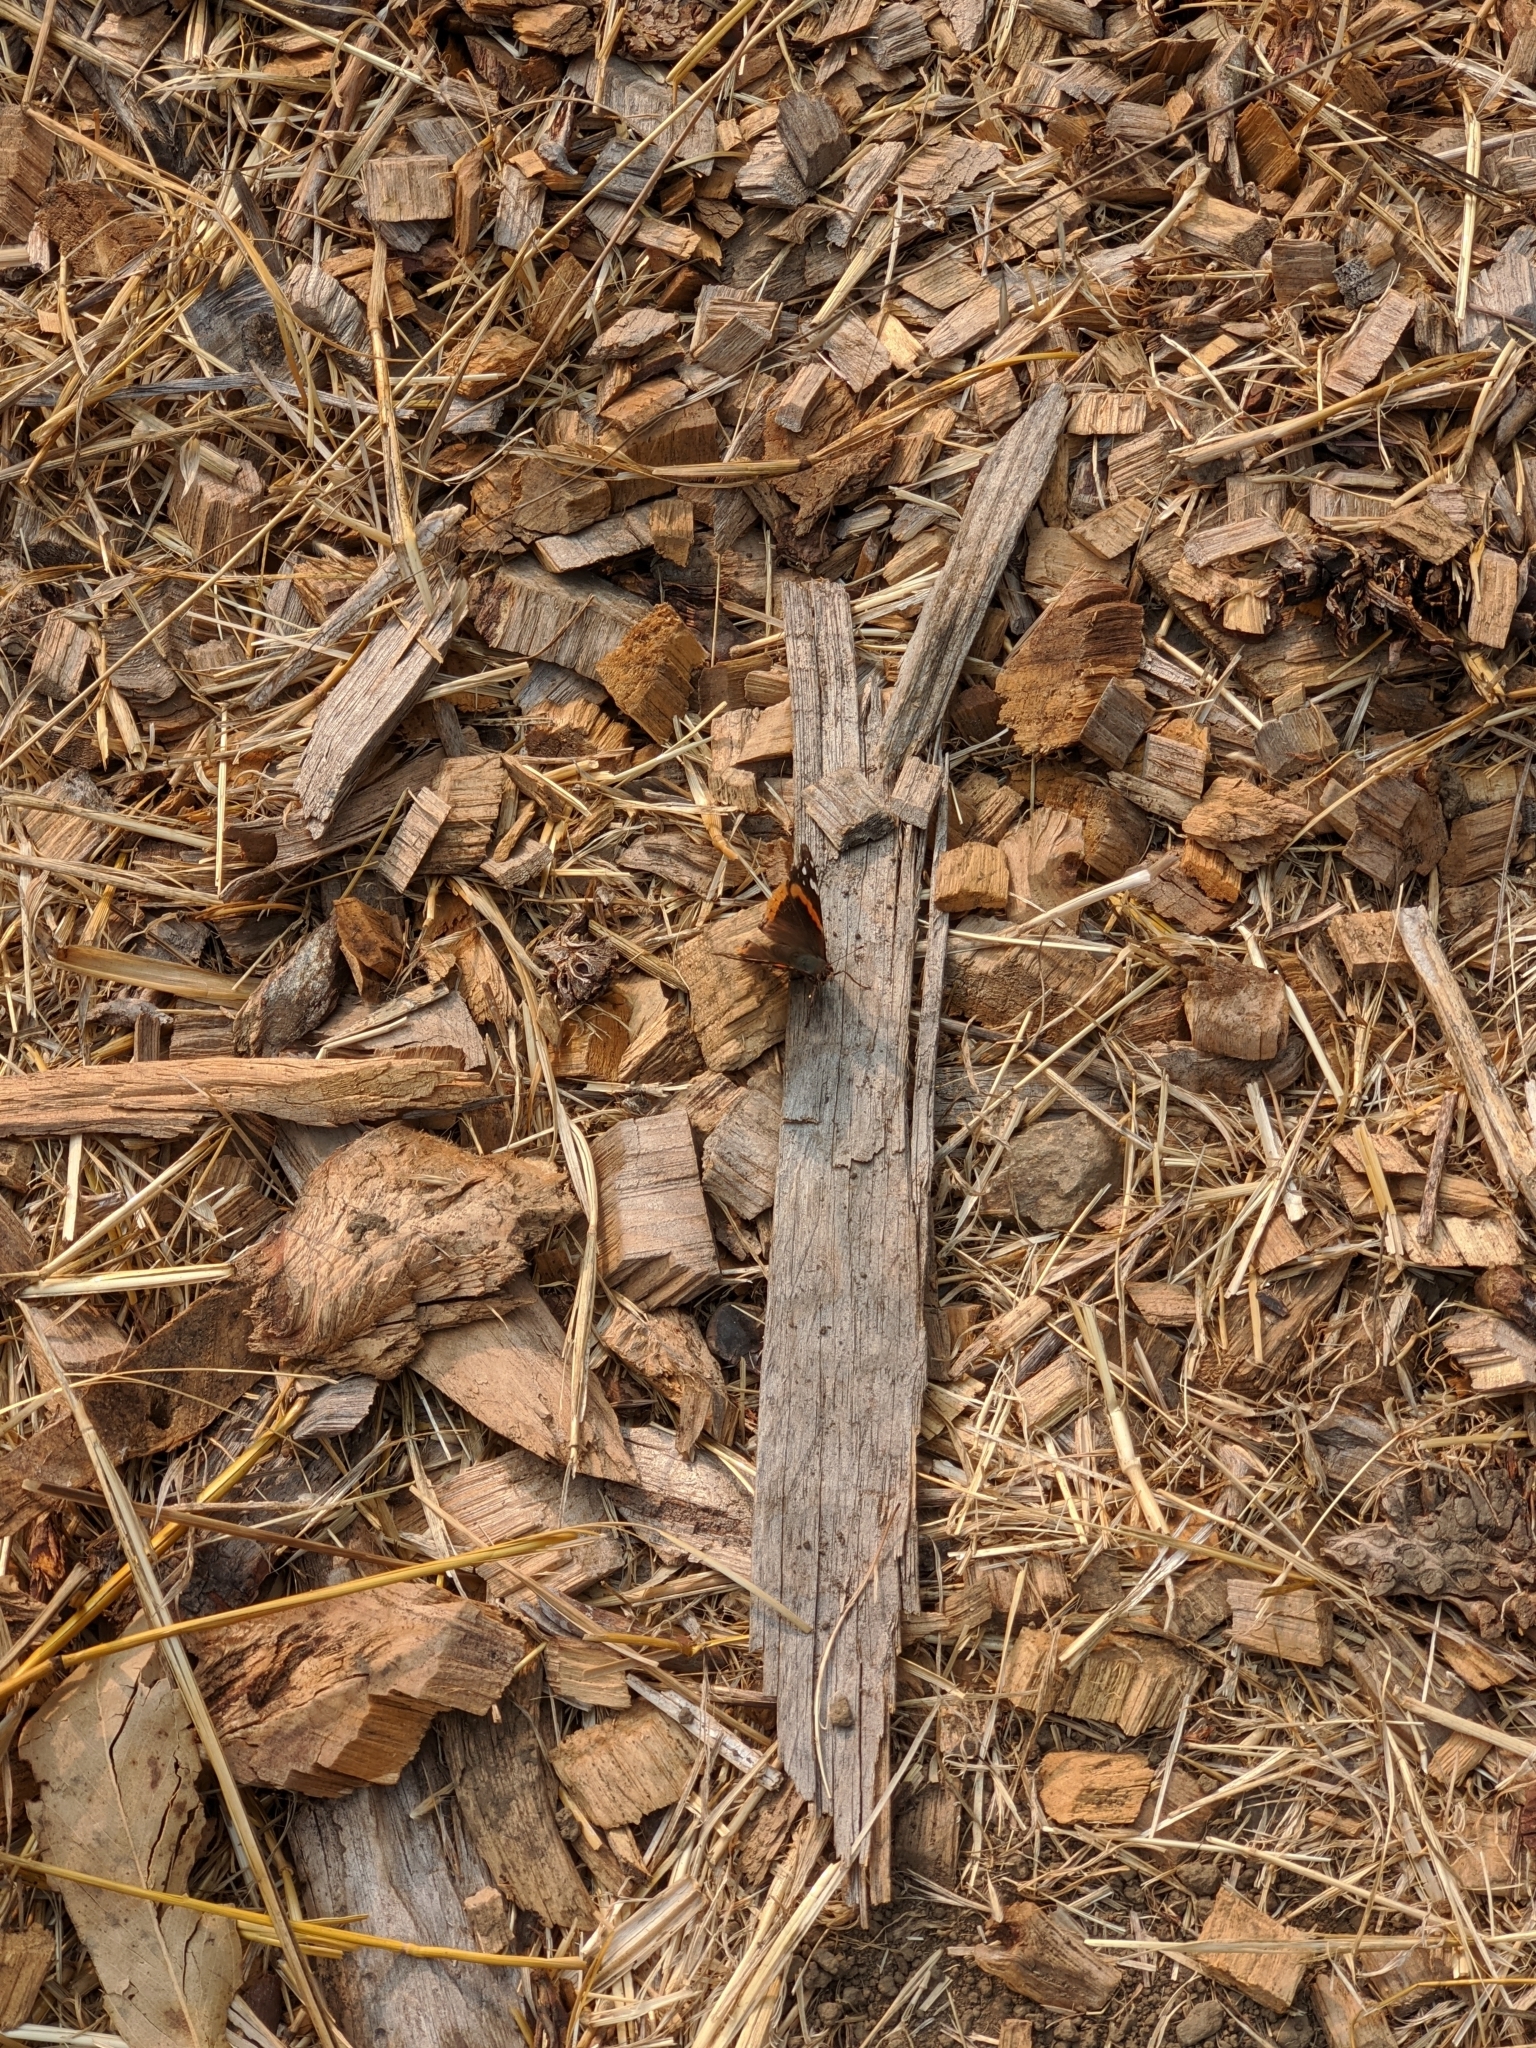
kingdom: Animalia
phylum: Arthropoda
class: Insecta
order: Lepidoptera
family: Nymphalidae
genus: Vanessa
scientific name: Vanessa atalanta
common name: Red admiral
